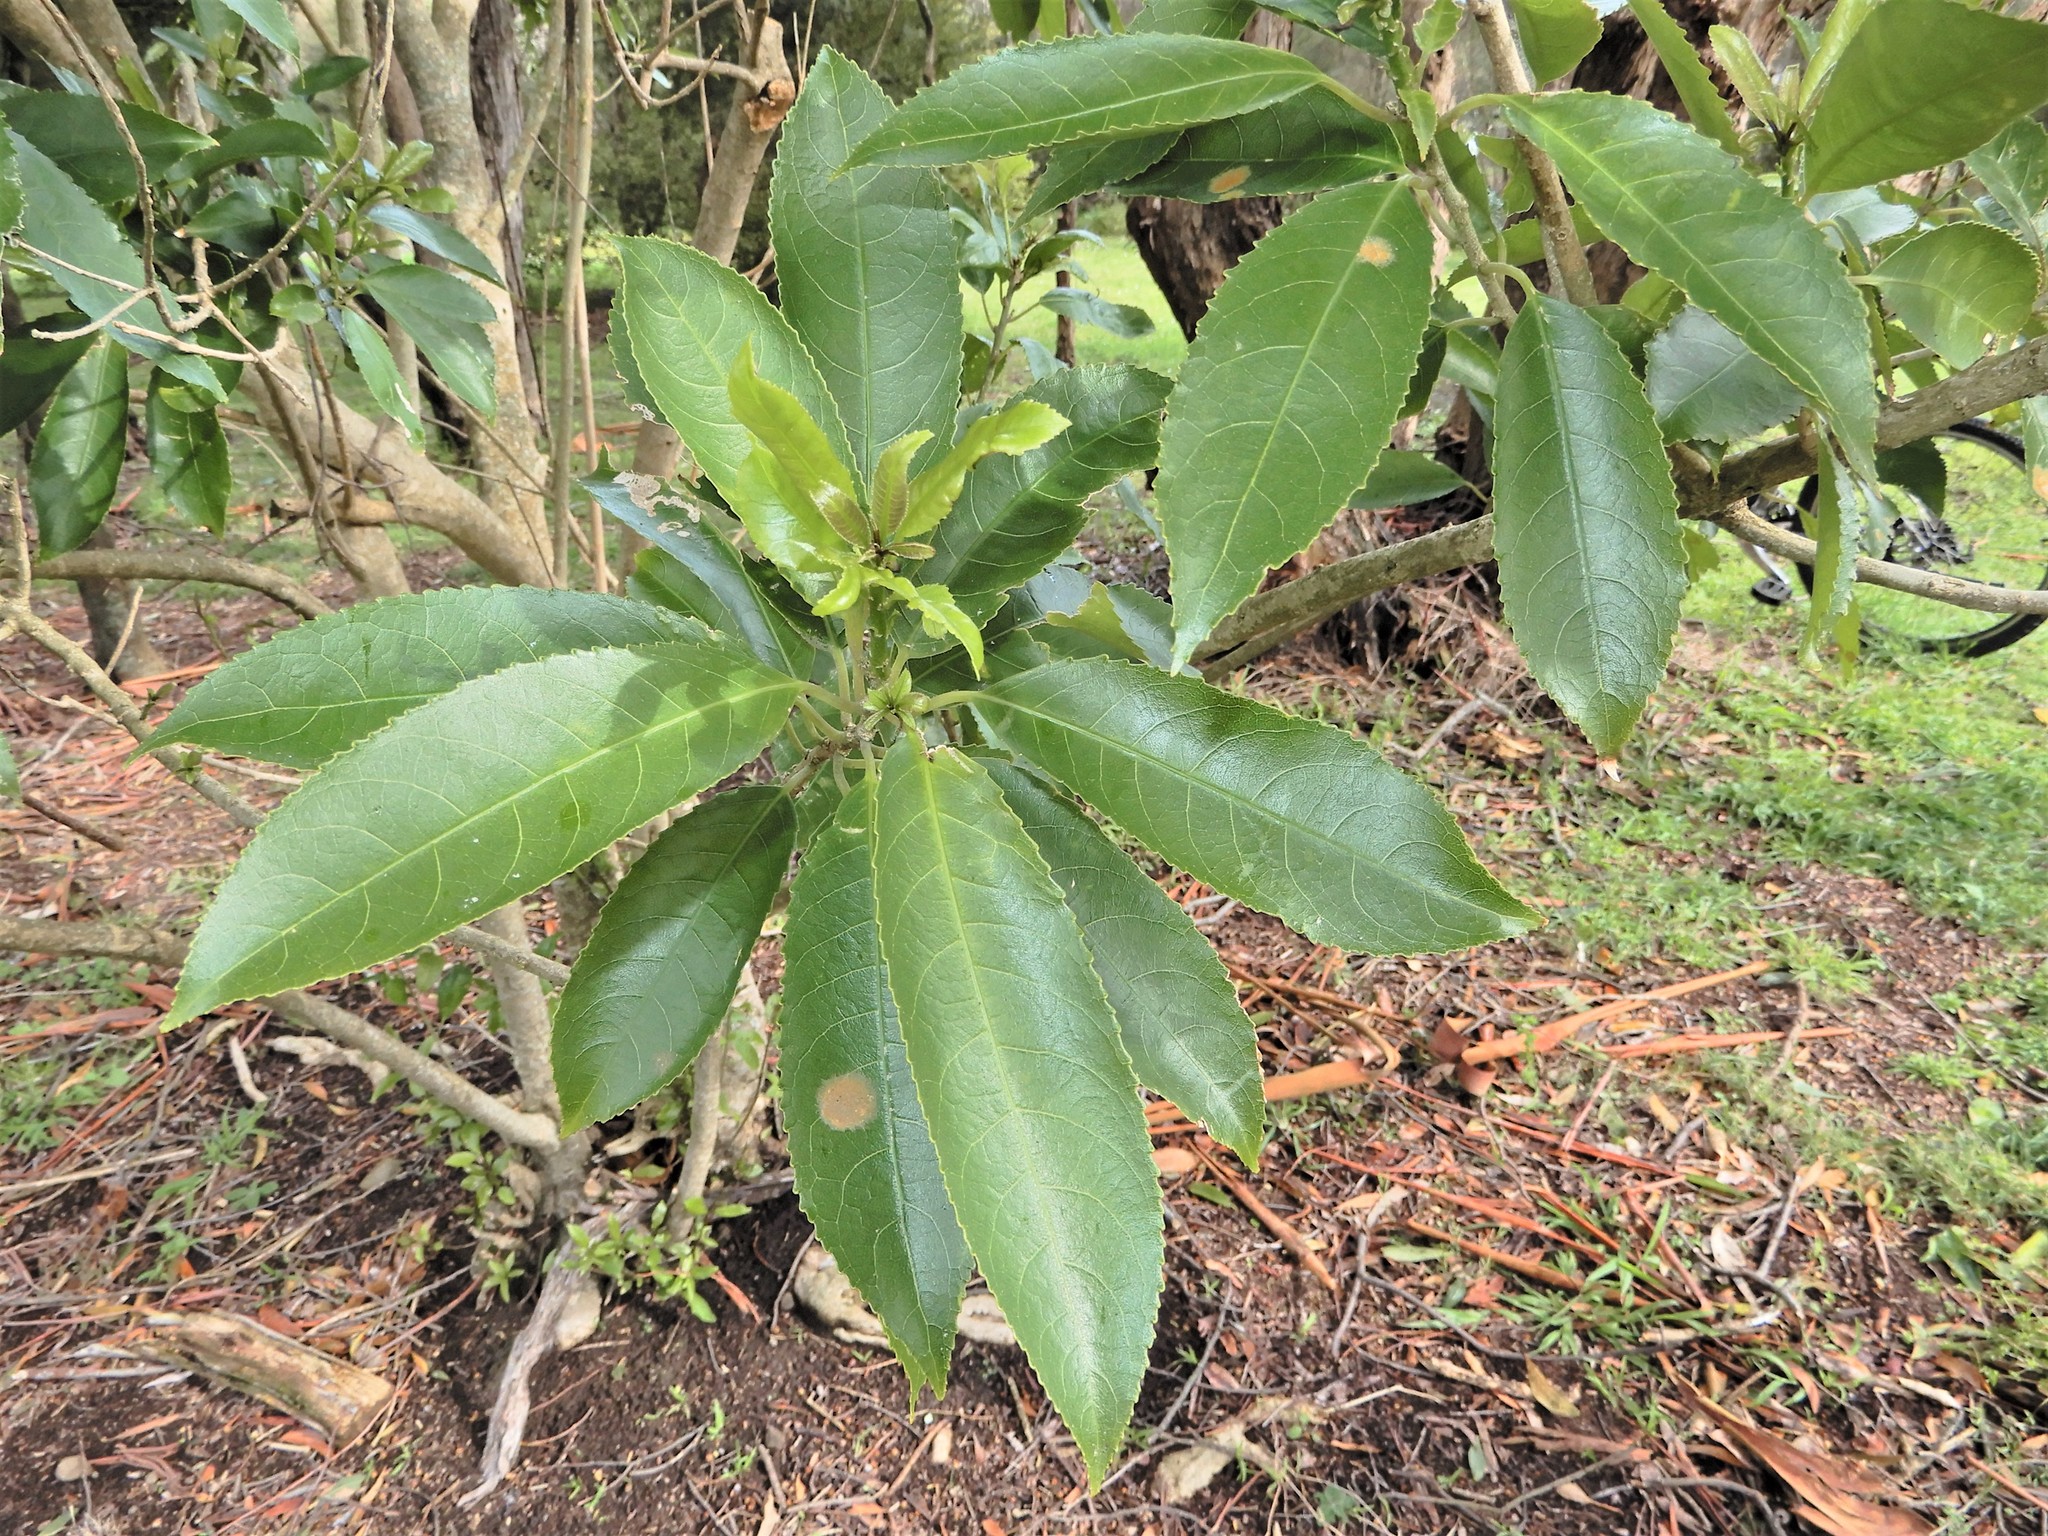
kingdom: Plantae
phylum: Tracheophyta
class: Magnoliopsida
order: Malpighiales
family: Violaceae
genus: Melicytus
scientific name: Melicytus ramiflorus
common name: Mahoe
